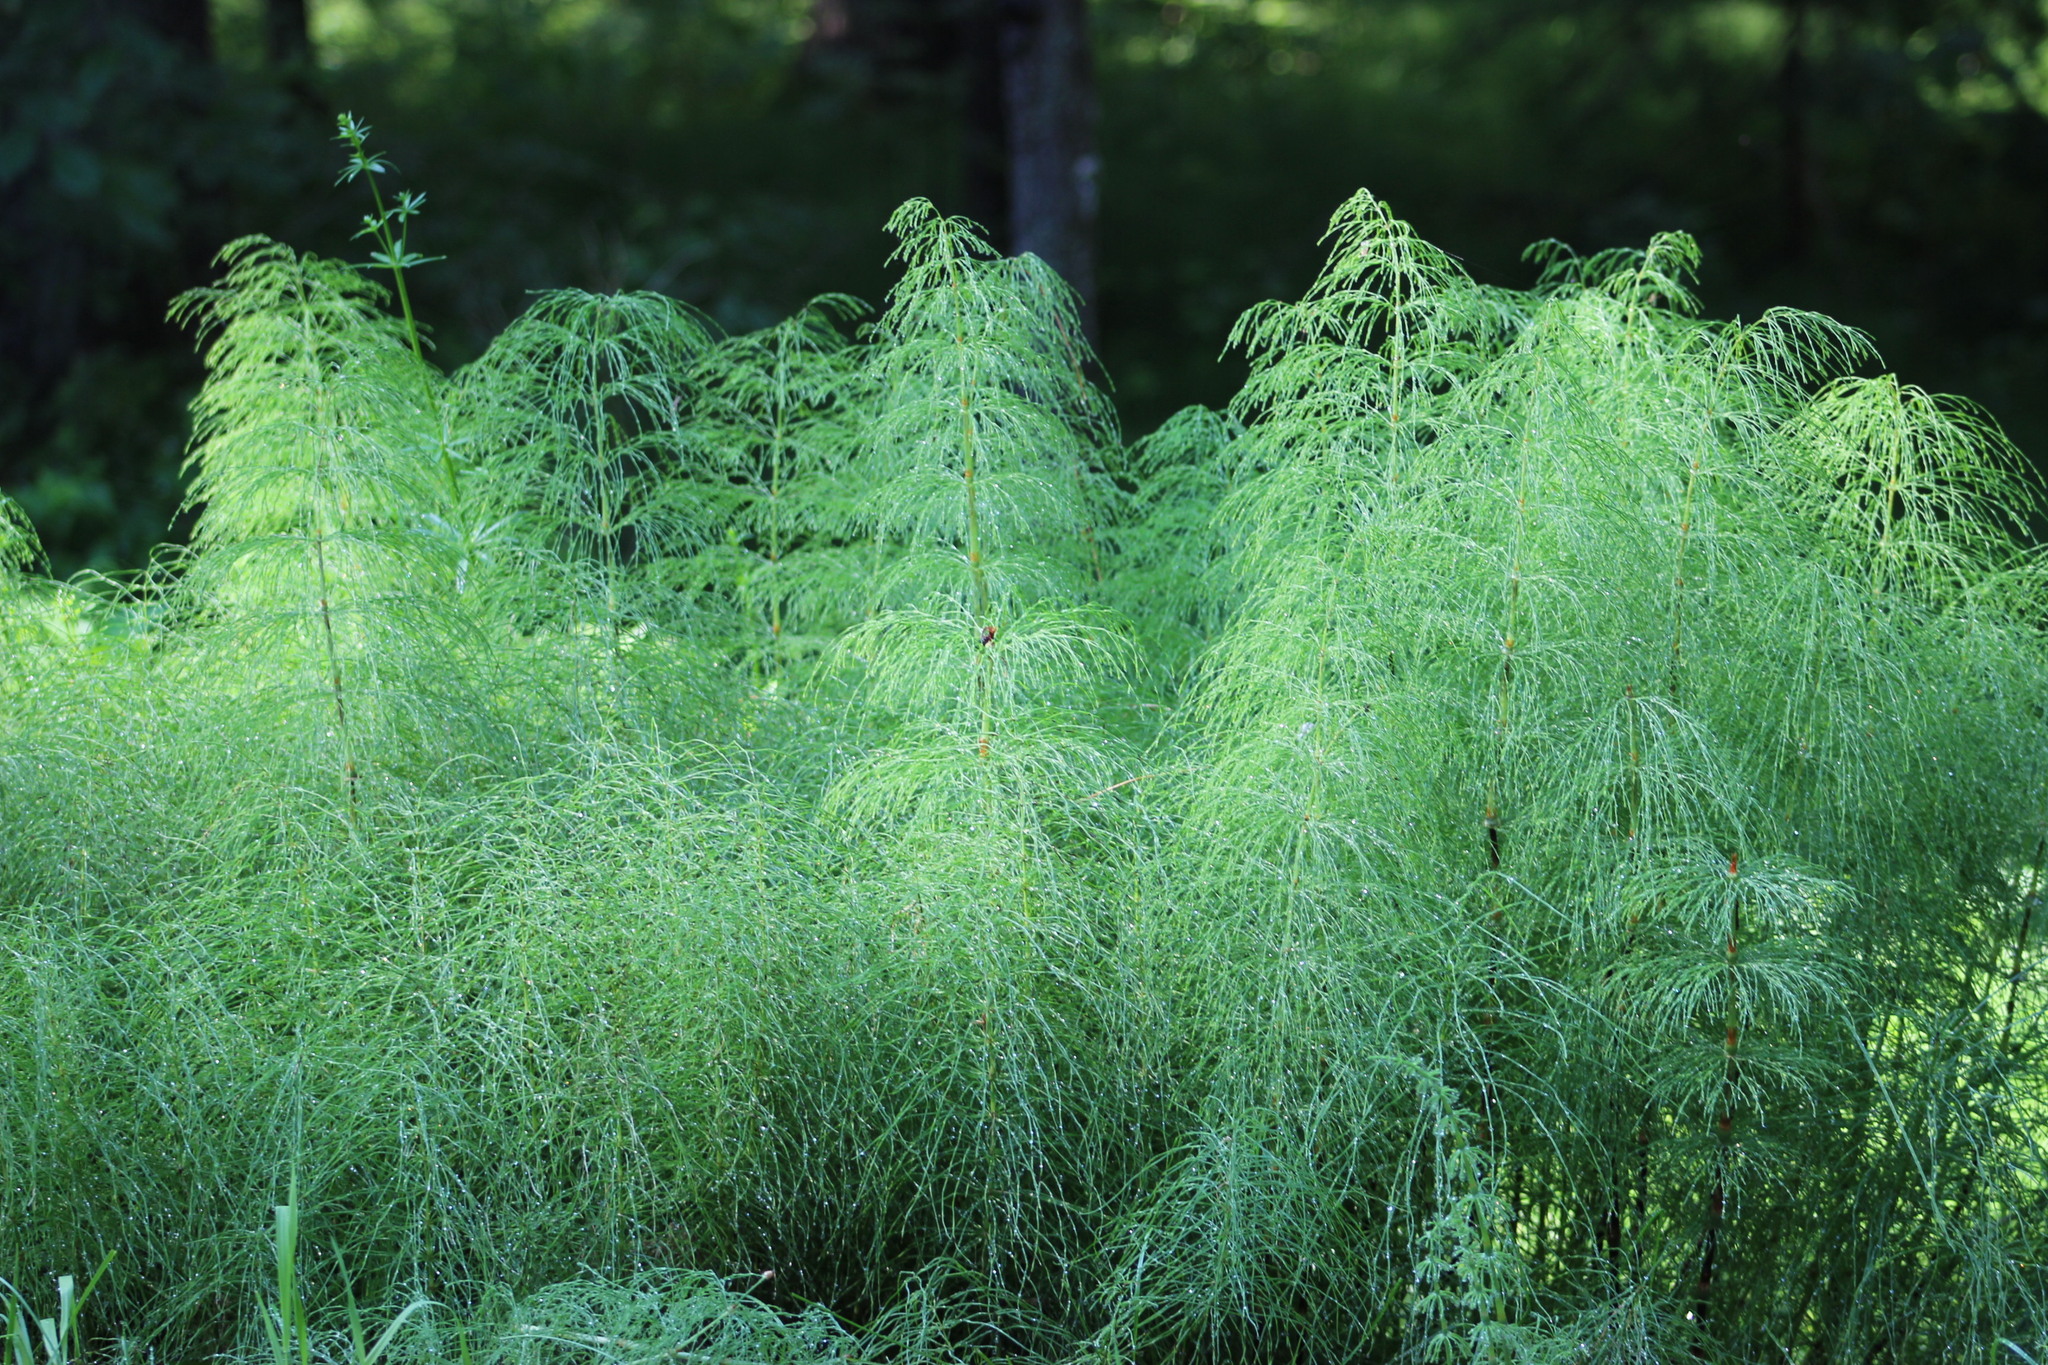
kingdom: Plantae
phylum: Tracheophyta
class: Polypodiopsida
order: Equisetales
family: Equisetaceae
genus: Equisetum
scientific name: Equisetum sylvaticum
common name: Wood horsetail
